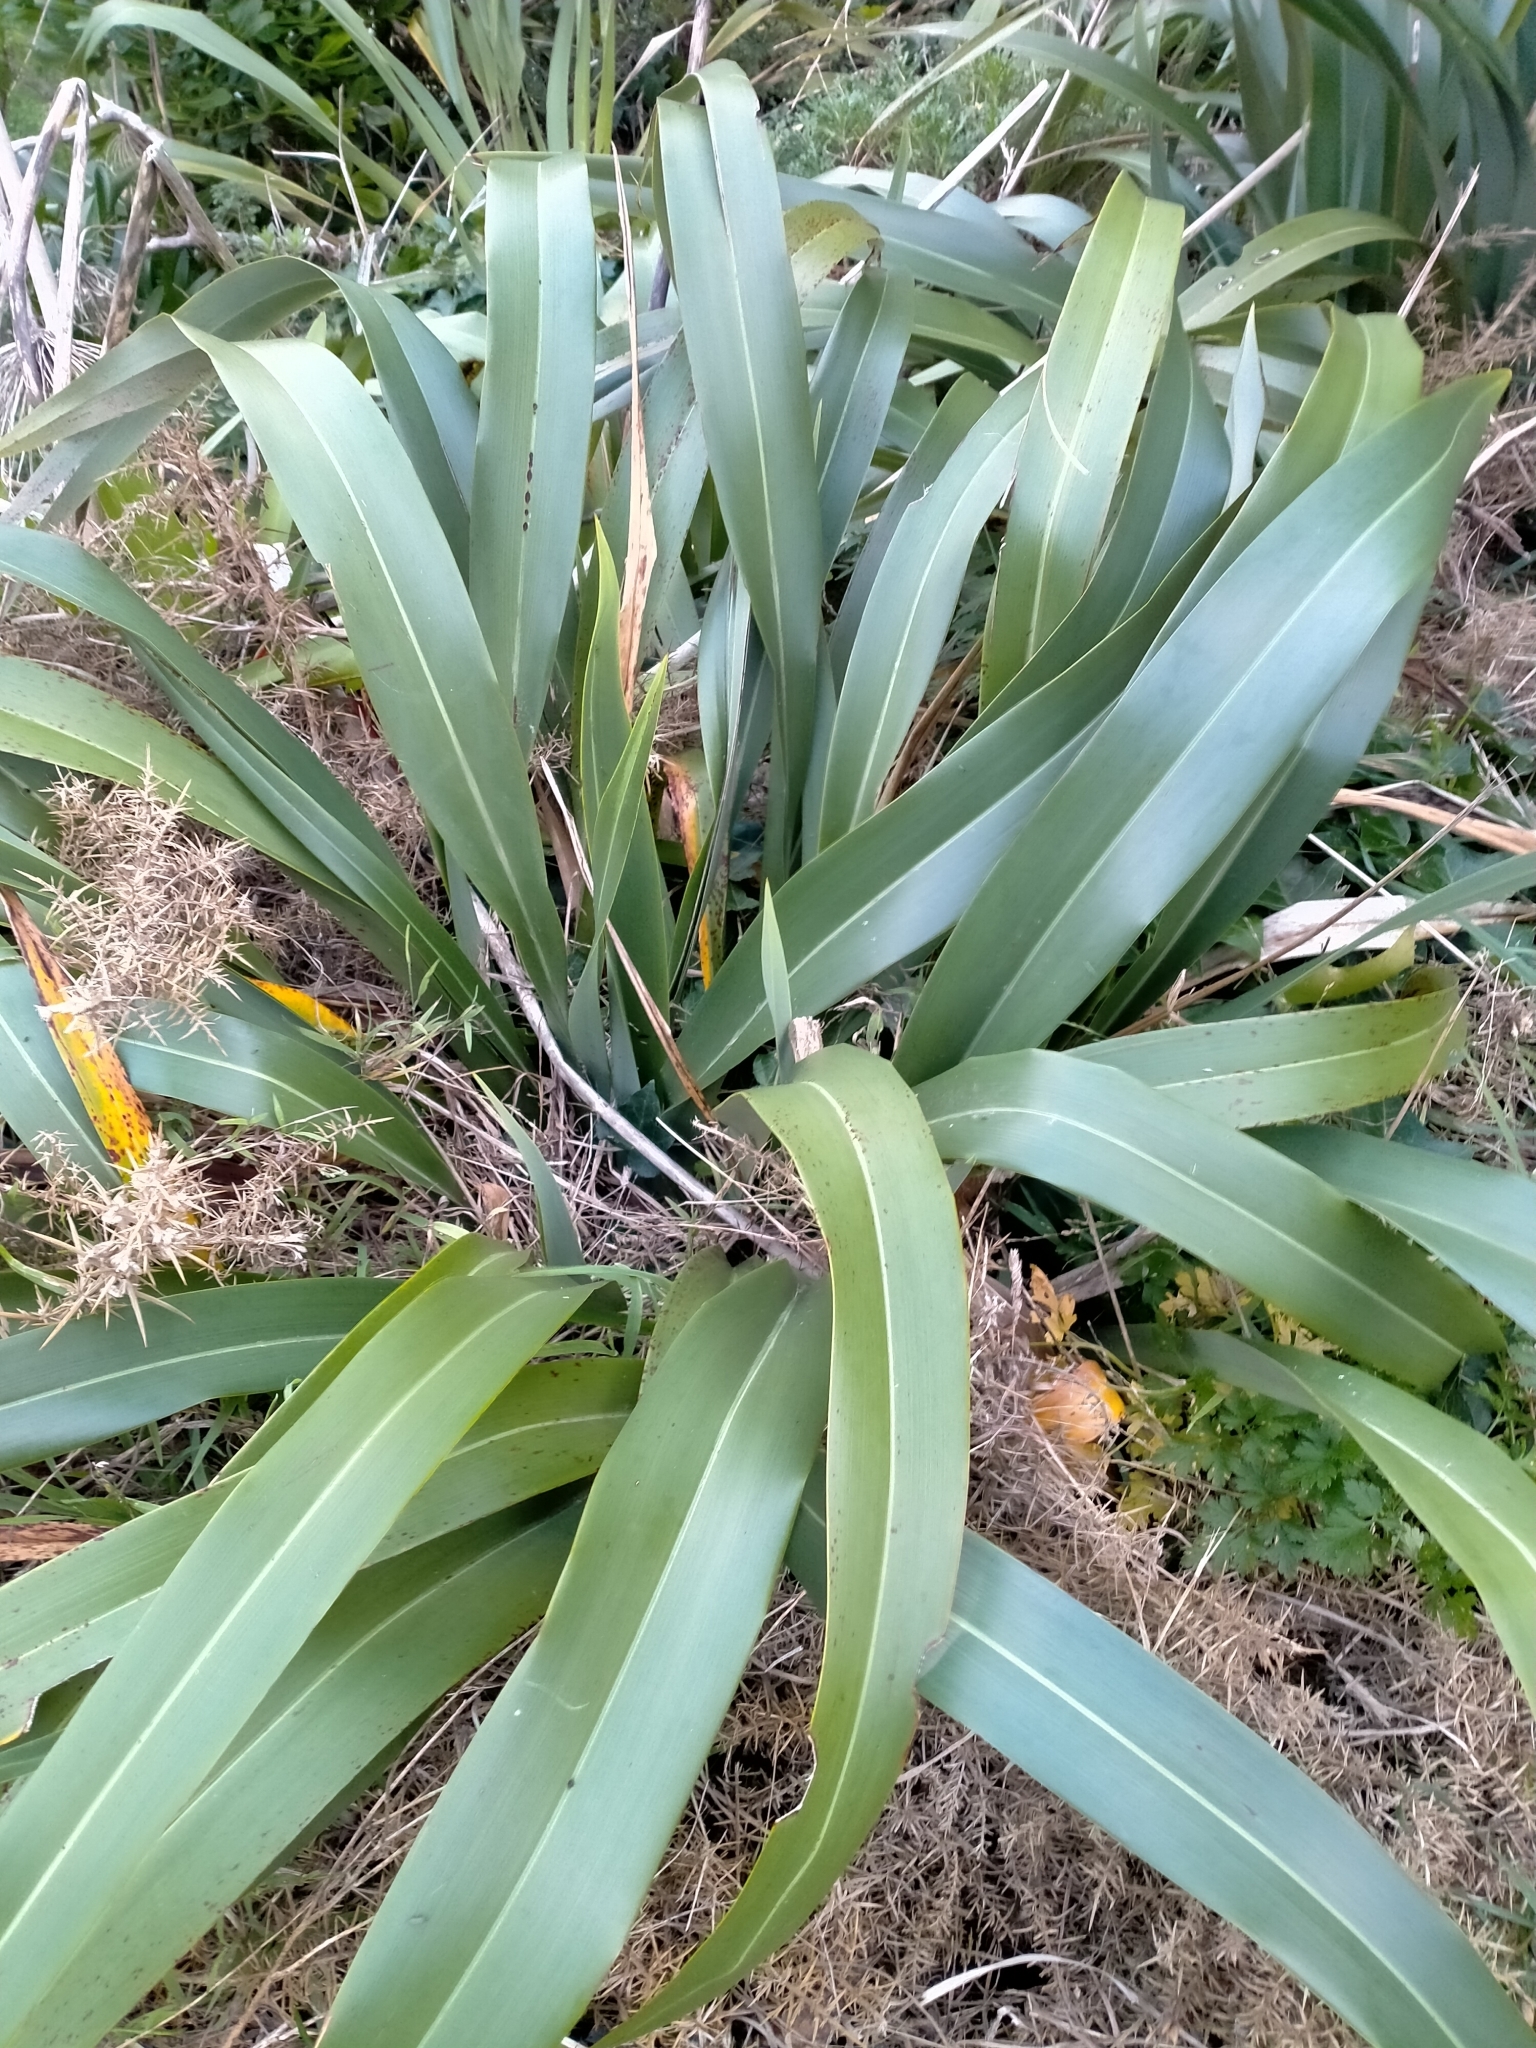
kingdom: Plantae
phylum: Tracheophyta
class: Liliopsida
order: Asparagales
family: Asphodelaceae
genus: Phormium
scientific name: Phormium colensoi
